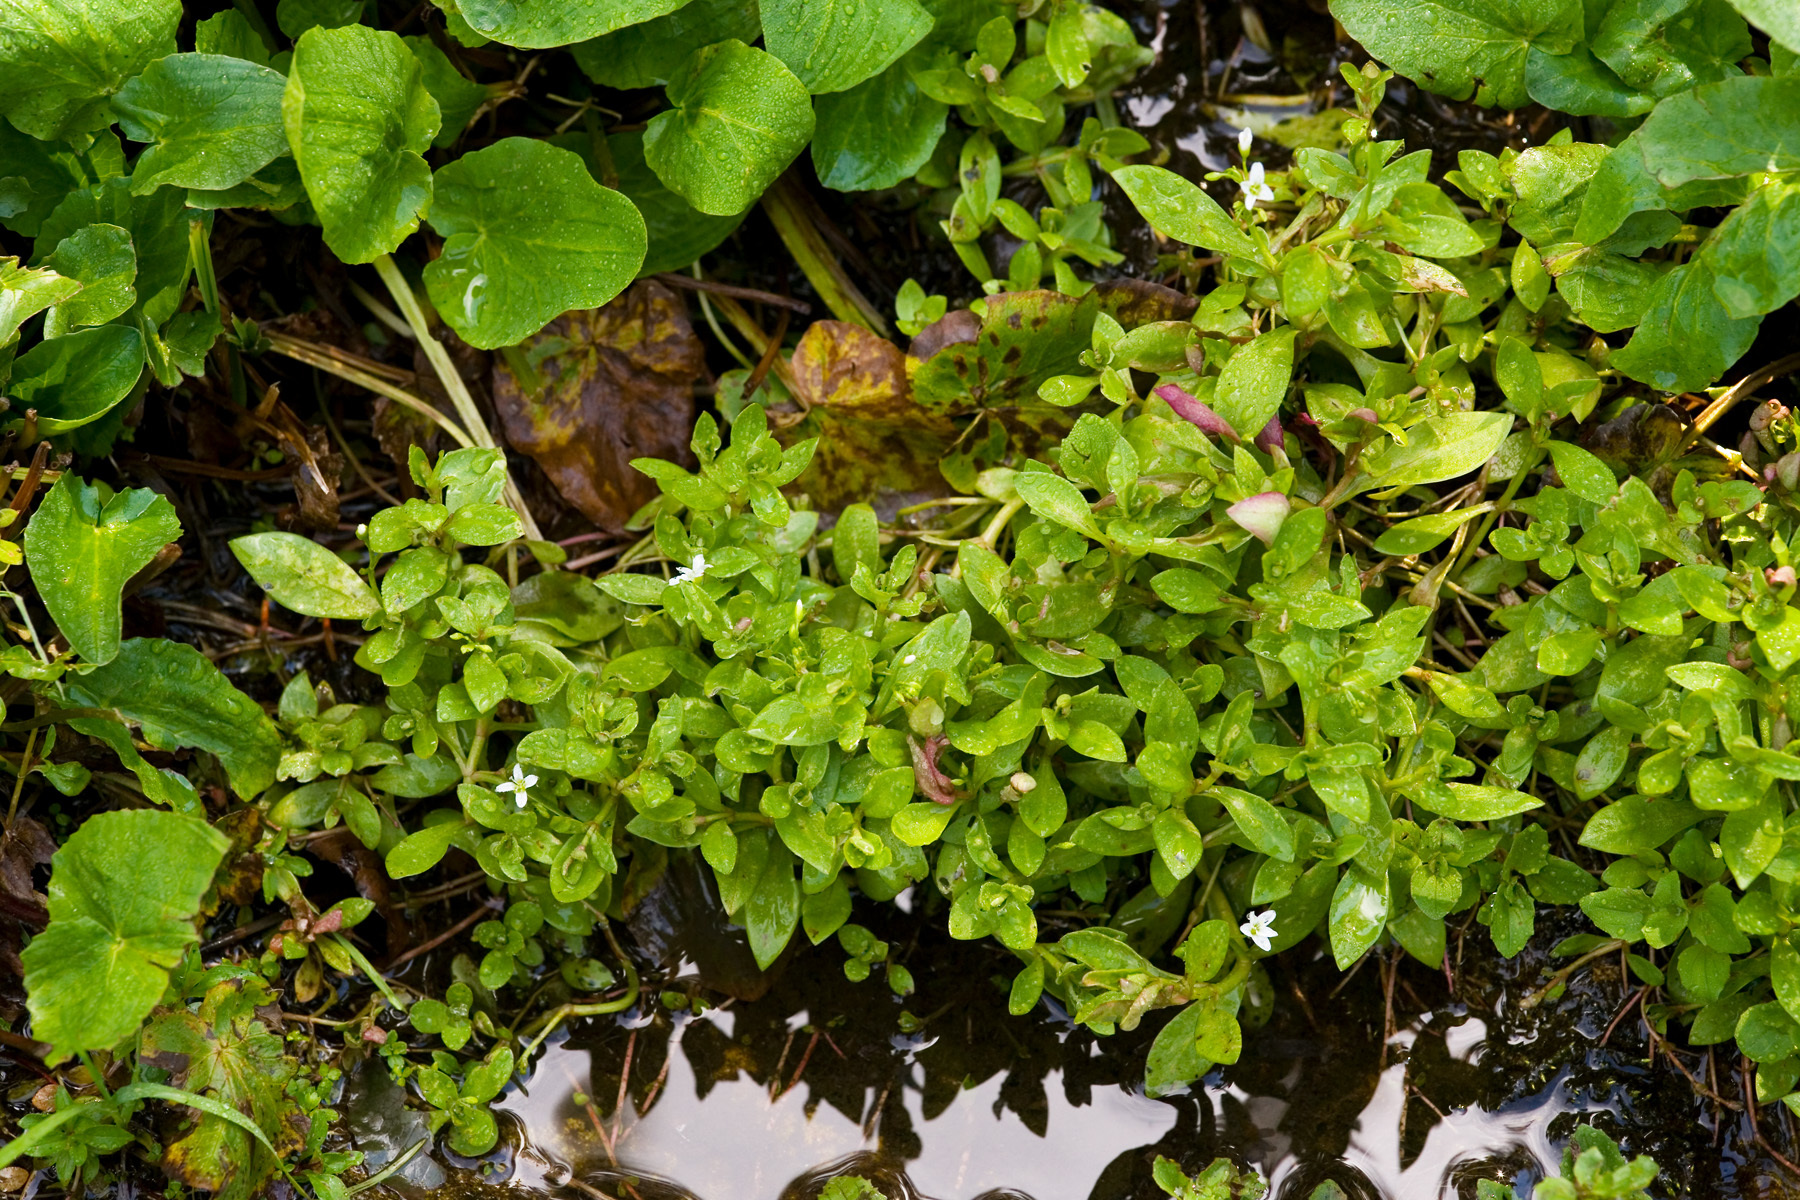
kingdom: Plantae
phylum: Tracheophyta
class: Magnoliopsida
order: Caryophyllales
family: Montiaceae
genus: Montia
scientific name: Montia chamissoi
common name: Chamisso's candyflower
